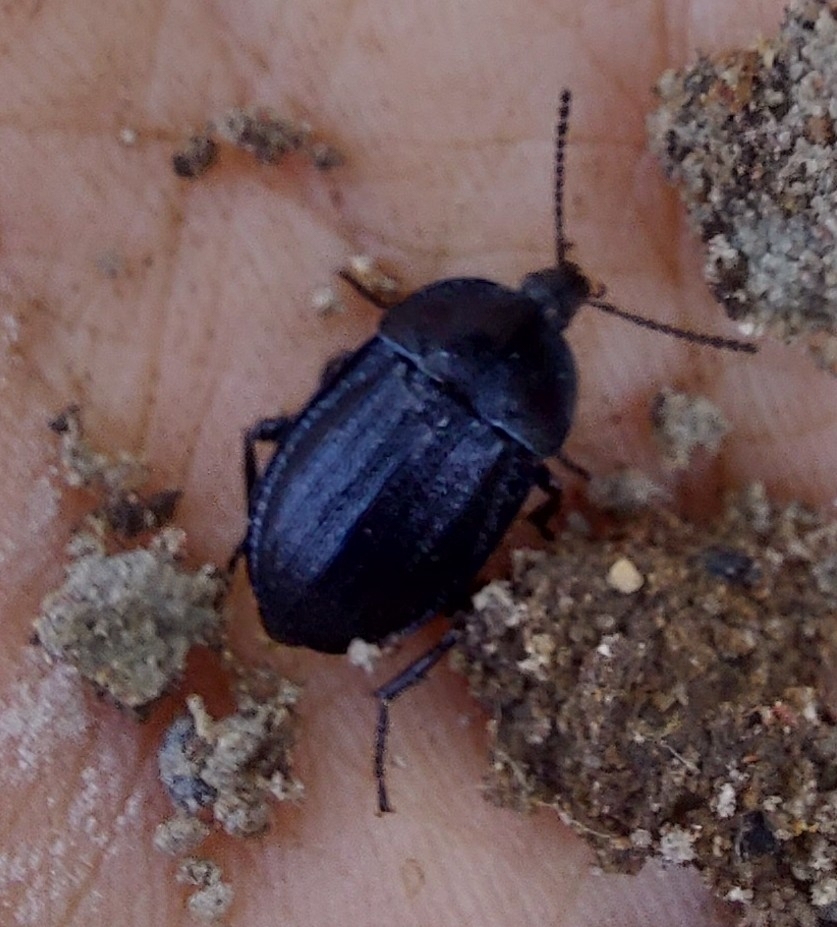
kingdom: Animalia
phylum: Arthropoda
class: Insecta
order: Coleoptera
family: Staphylinidae
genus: Silpha
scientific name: Silpha atrata
